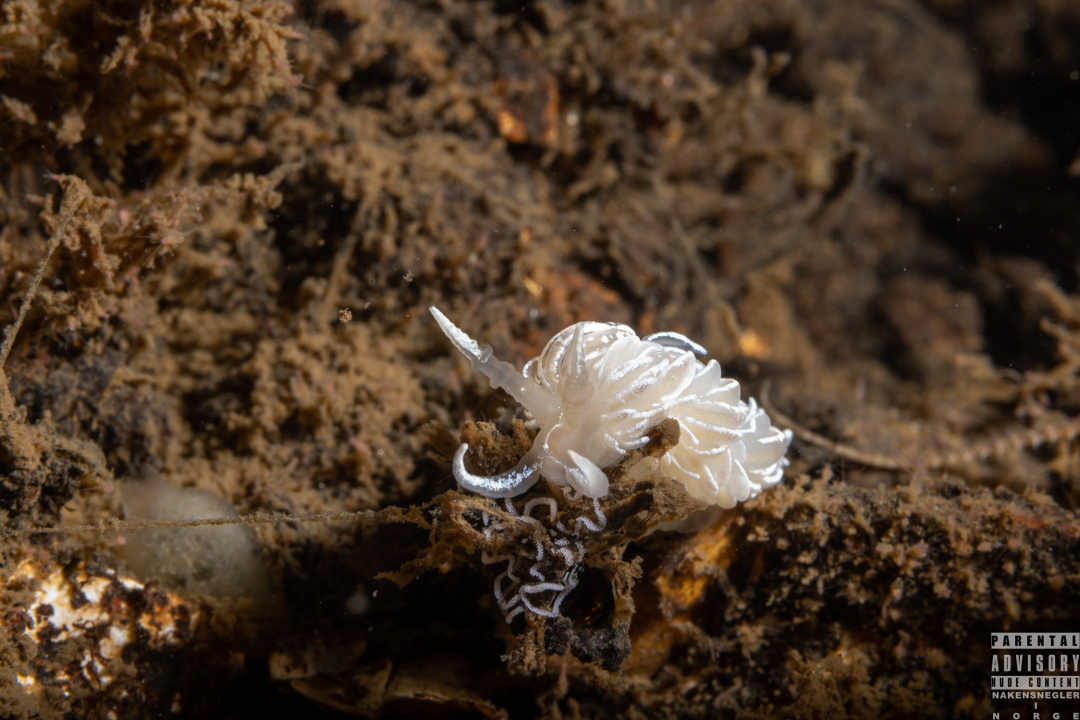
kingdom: Animalia
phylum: Mollusca
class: Gastropoda
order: Nudibranchia
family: Facelinidae
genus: Favorinus
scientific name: Favorinus blianus
